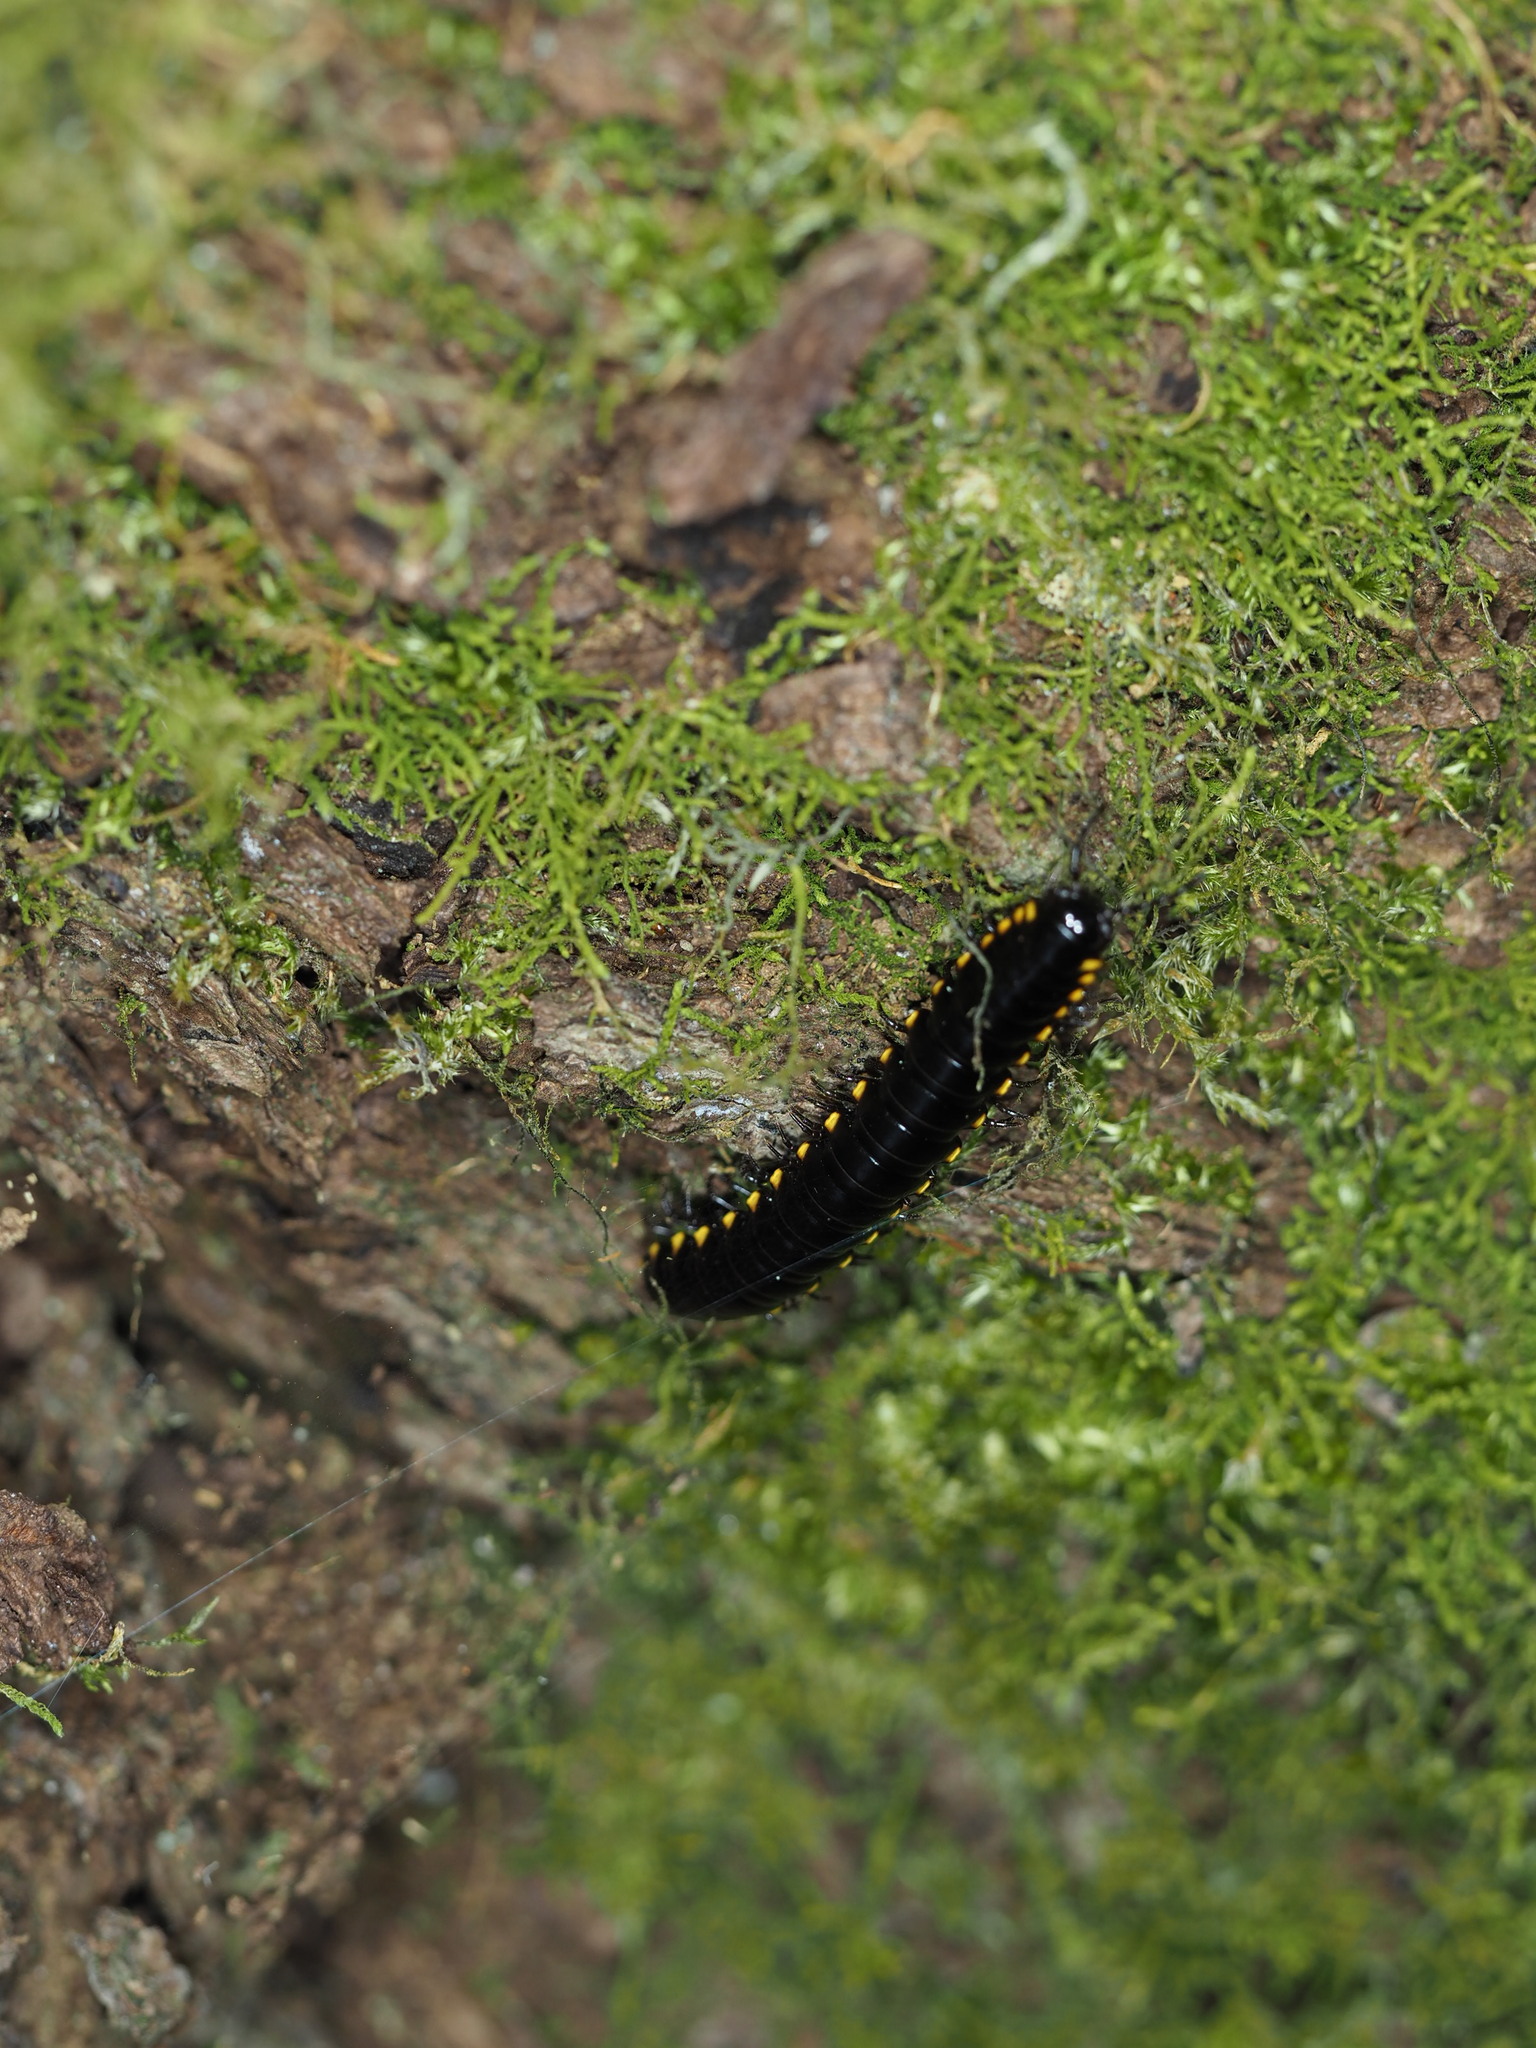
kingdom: Animalia
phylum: Arthropoda
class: Diplopoda
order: Polydesmida
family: Xystodesmidae
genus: Harpaphe
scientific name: Harpaphe haydeniana
